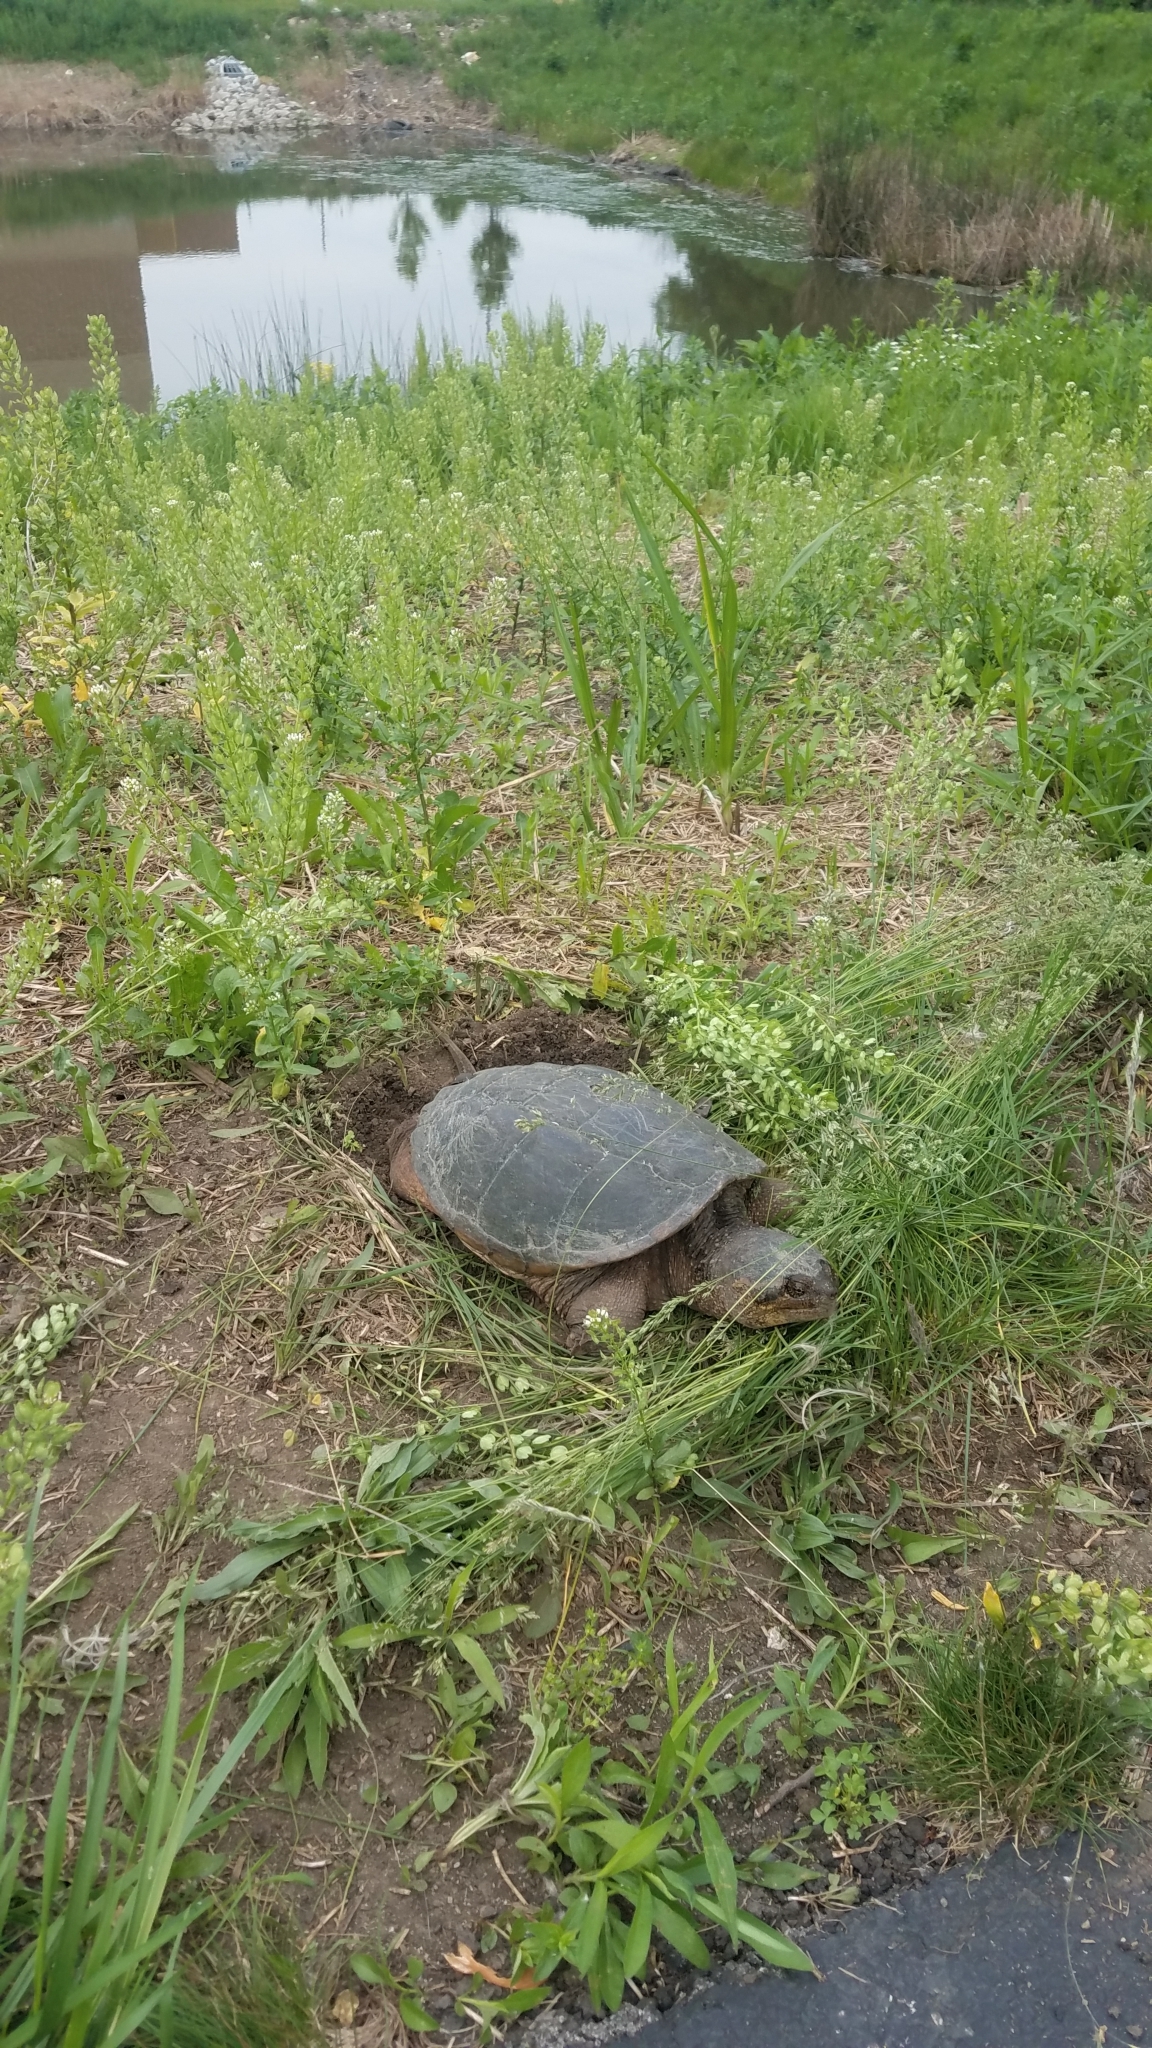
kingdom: Animalia
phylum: Chordata
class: Testudines
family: Chelydridae
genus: Chelydra
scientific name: Chelydra serpentina
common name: Common snapping turtle
